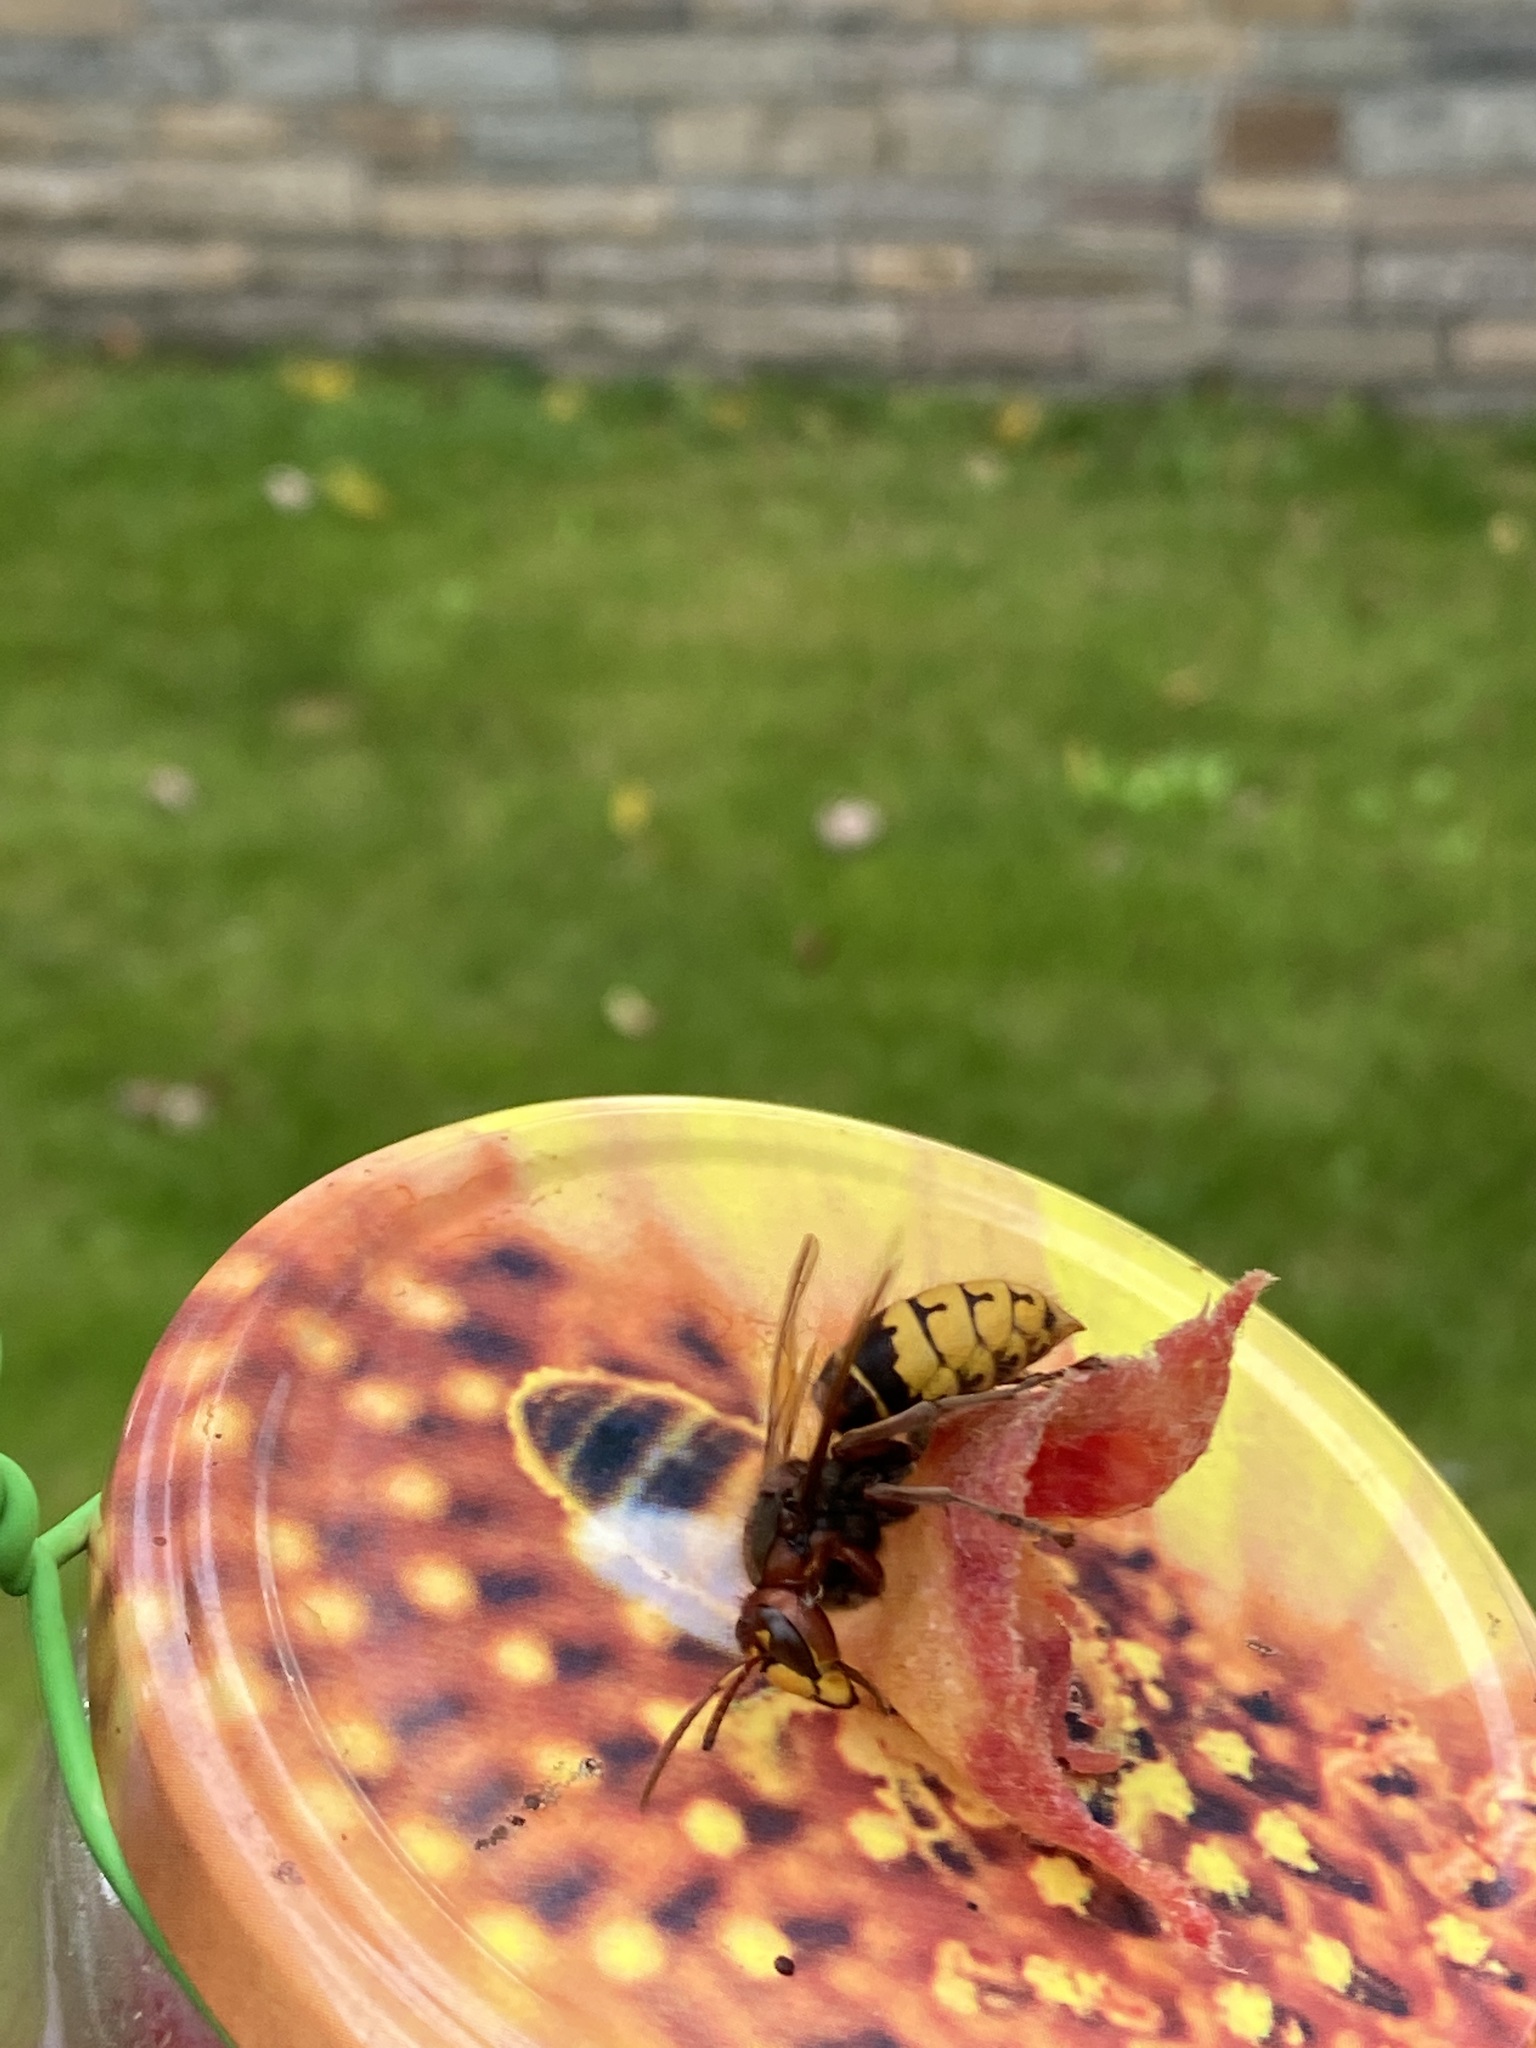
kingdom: Animalia
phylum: Arthropoda
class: Insecta
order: Hymenoptera
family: Vespidae
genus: Vespa
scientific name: Vespa crabro
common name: Hornet
